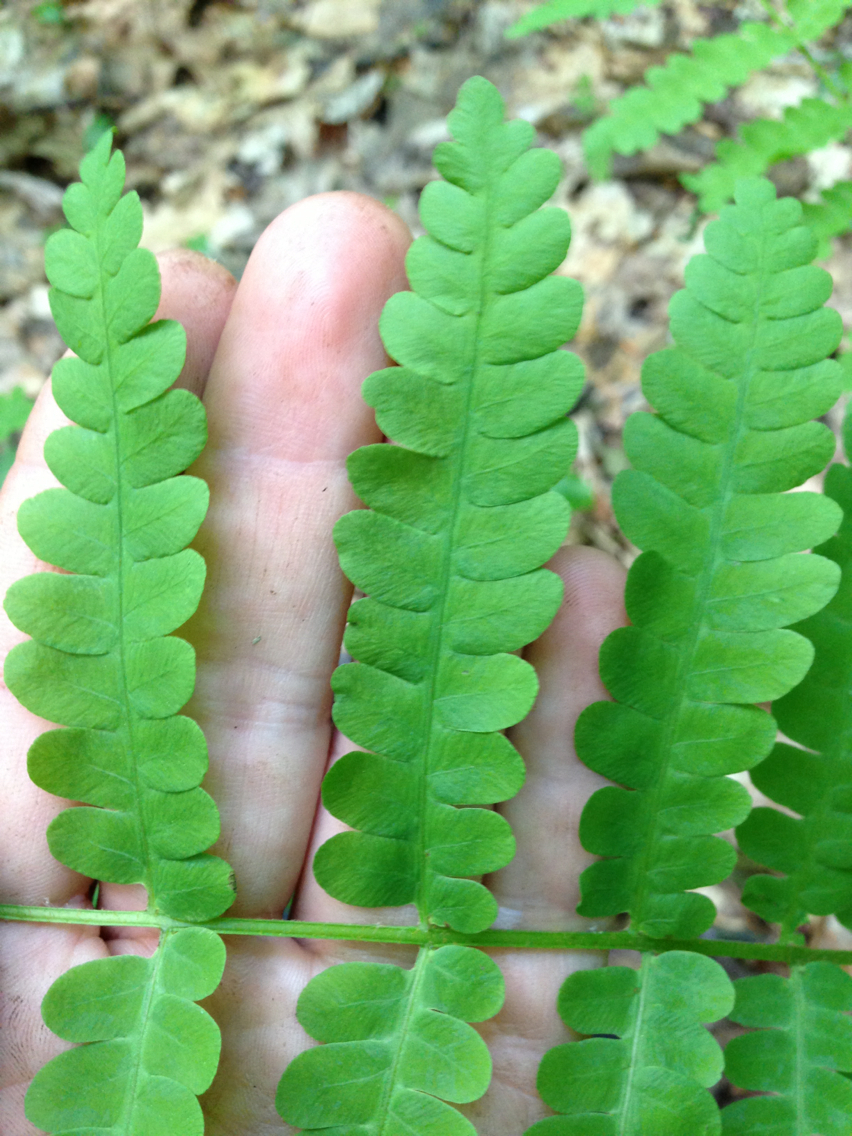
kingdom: Plantae
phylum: Tracheophyta
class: Polypodiopsida
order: Osmundales
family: Osmundaceae
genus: Claytosmunda
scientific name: Claytosmunda claytoniana
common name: Clayton's fern
